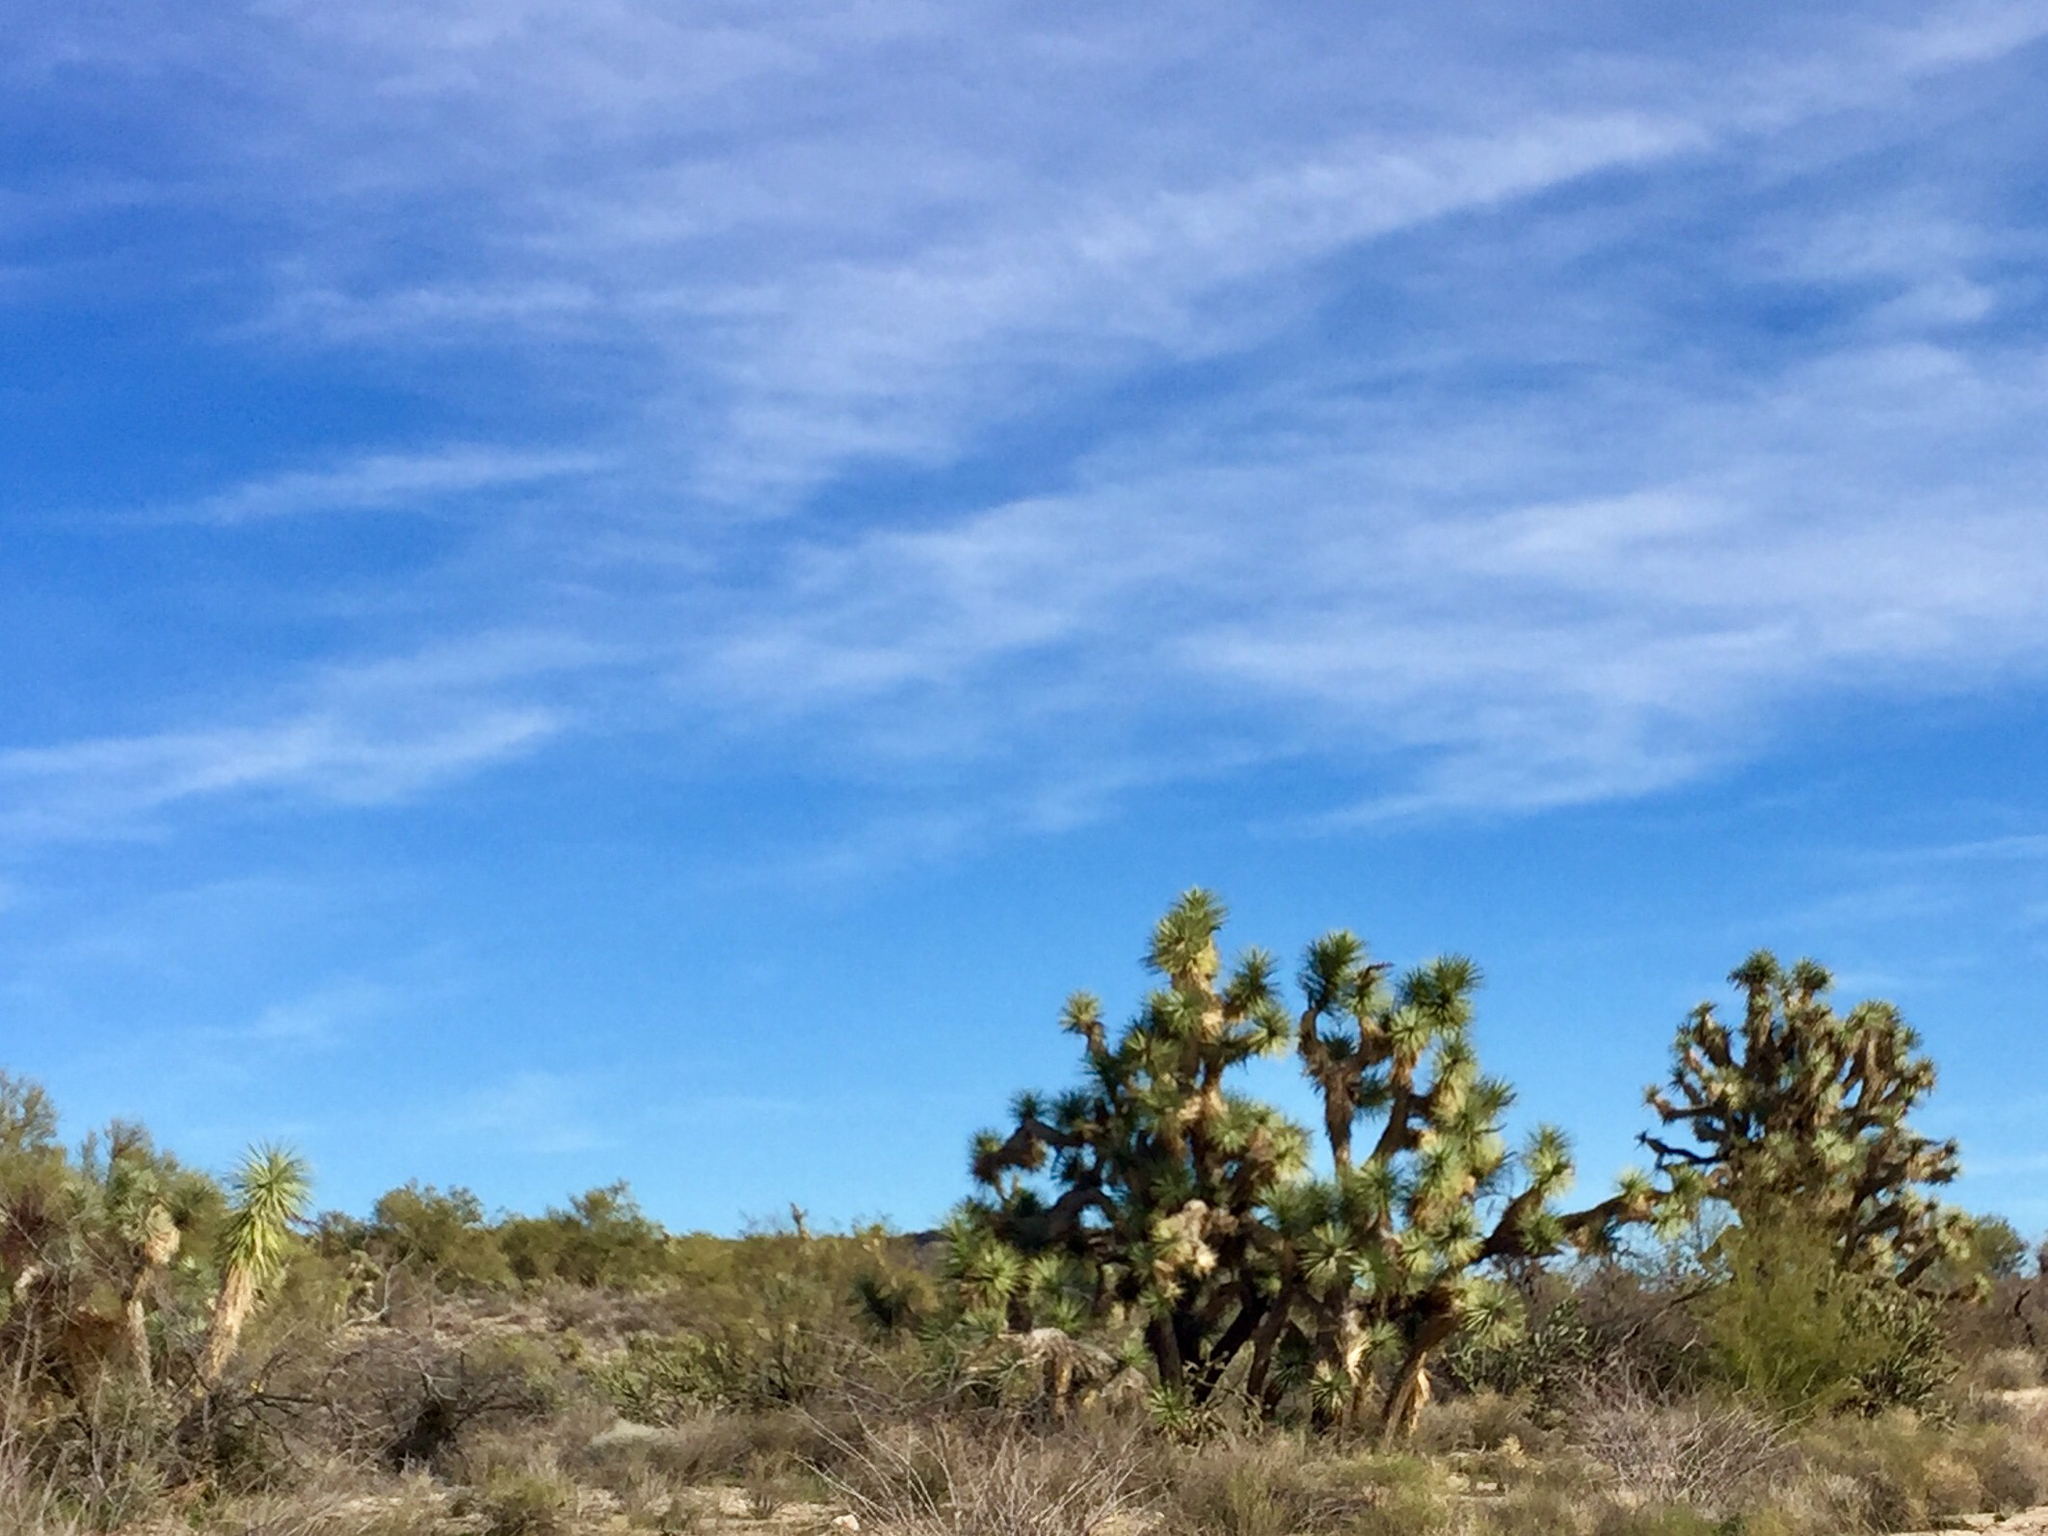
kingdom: Plantae
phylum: Tracheophyta
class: Liliopsida
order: Asparagales
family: Asparagaceae
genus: Yucca
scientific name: Yucca brevifolia
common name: Joshua tree
